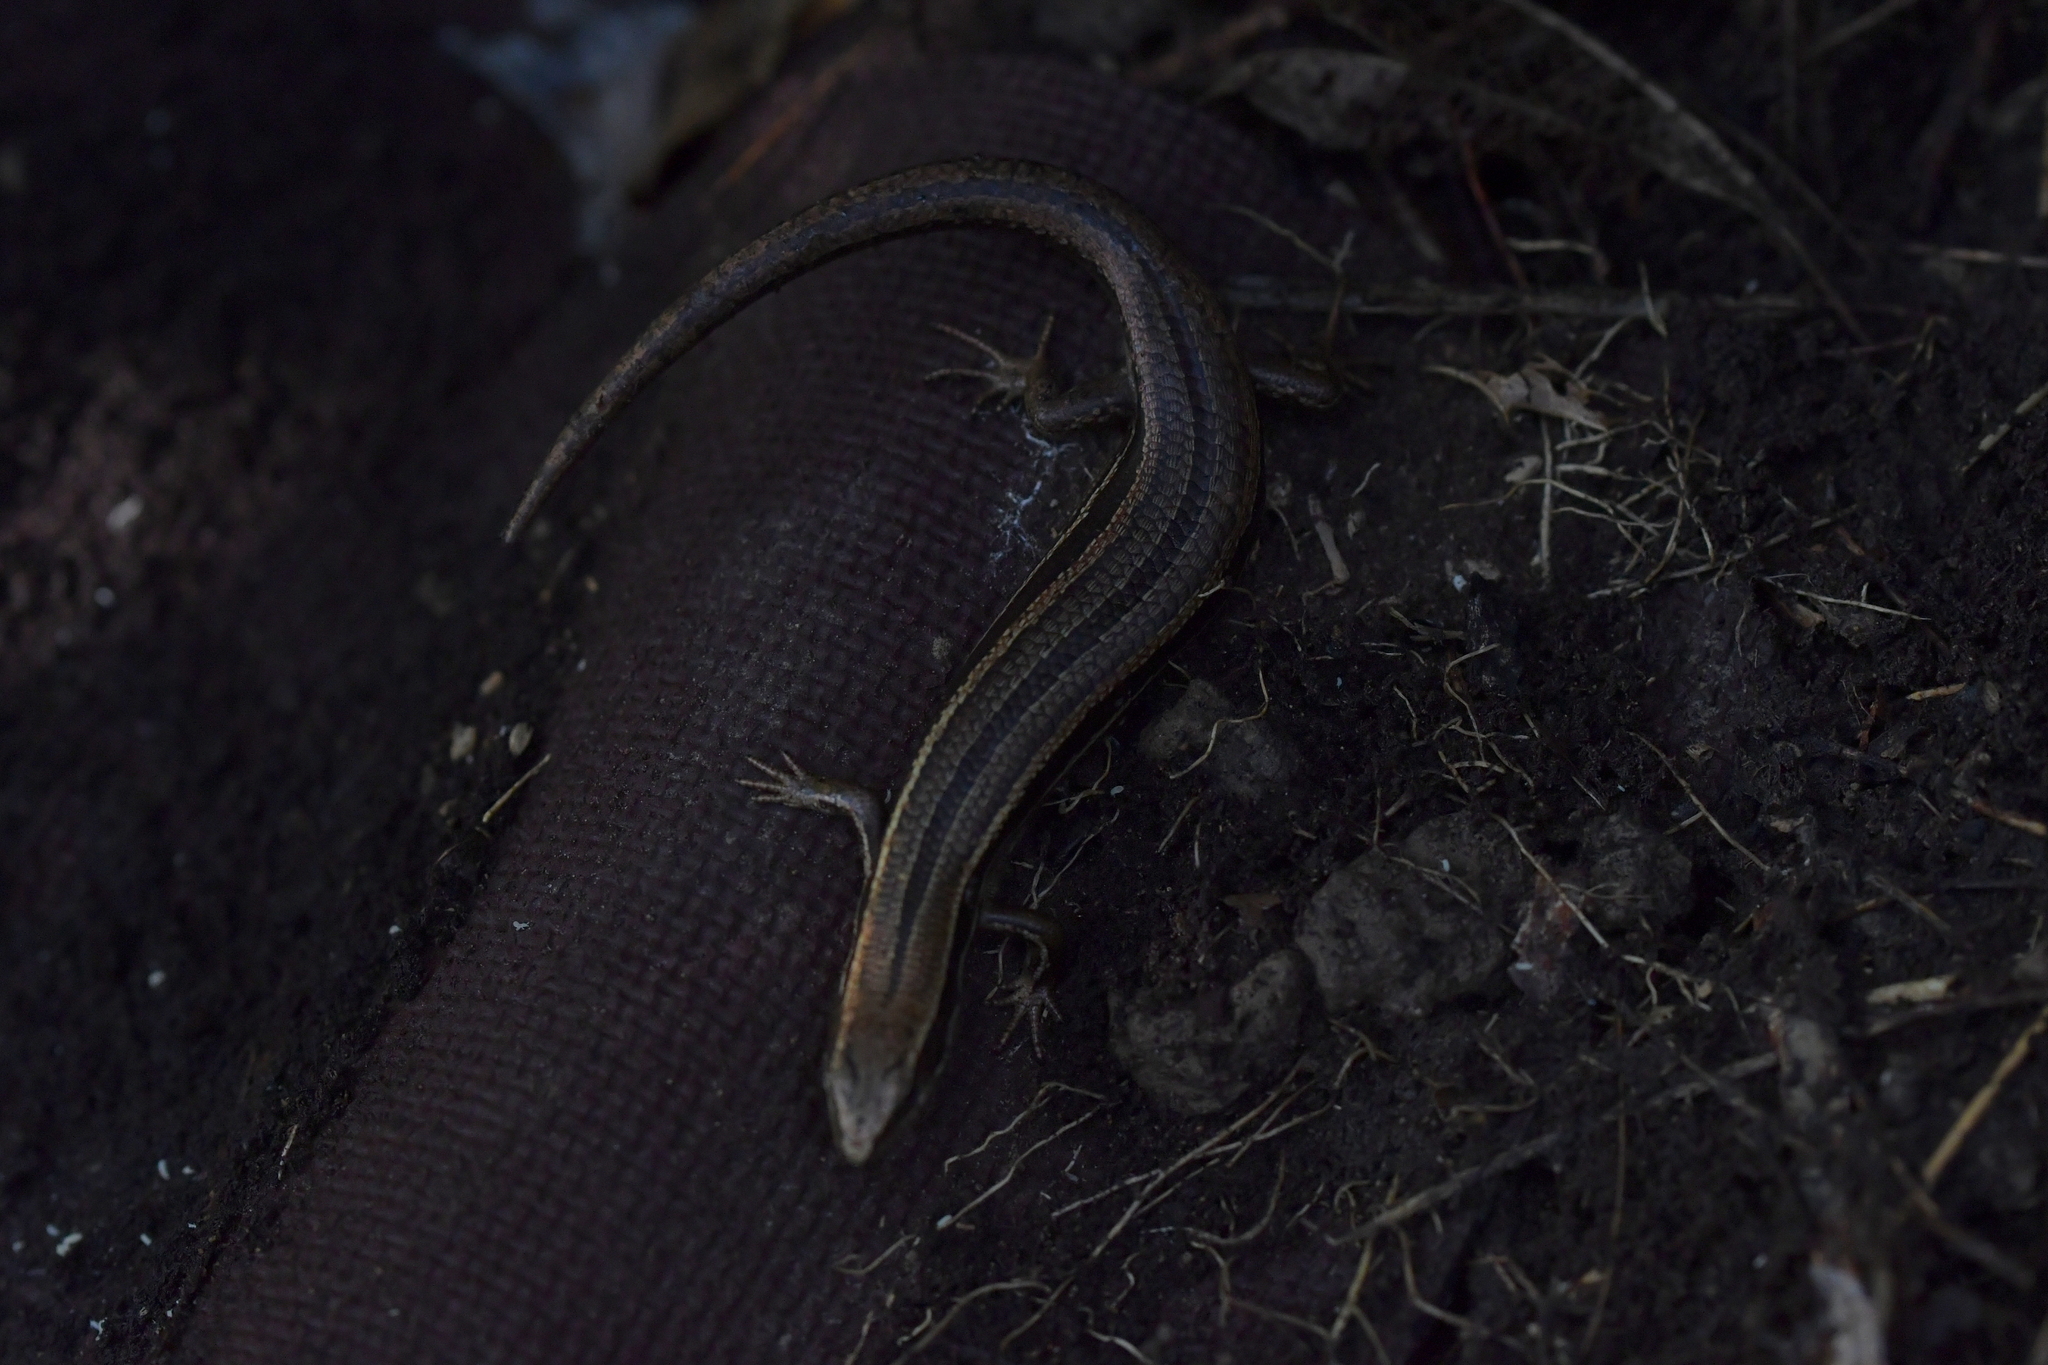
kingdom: Animalia
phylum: Chordata
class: Squamata
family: Scincidae
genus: Oligosoma
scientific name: Oligosoma polychroma
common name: Common new zealand skink
